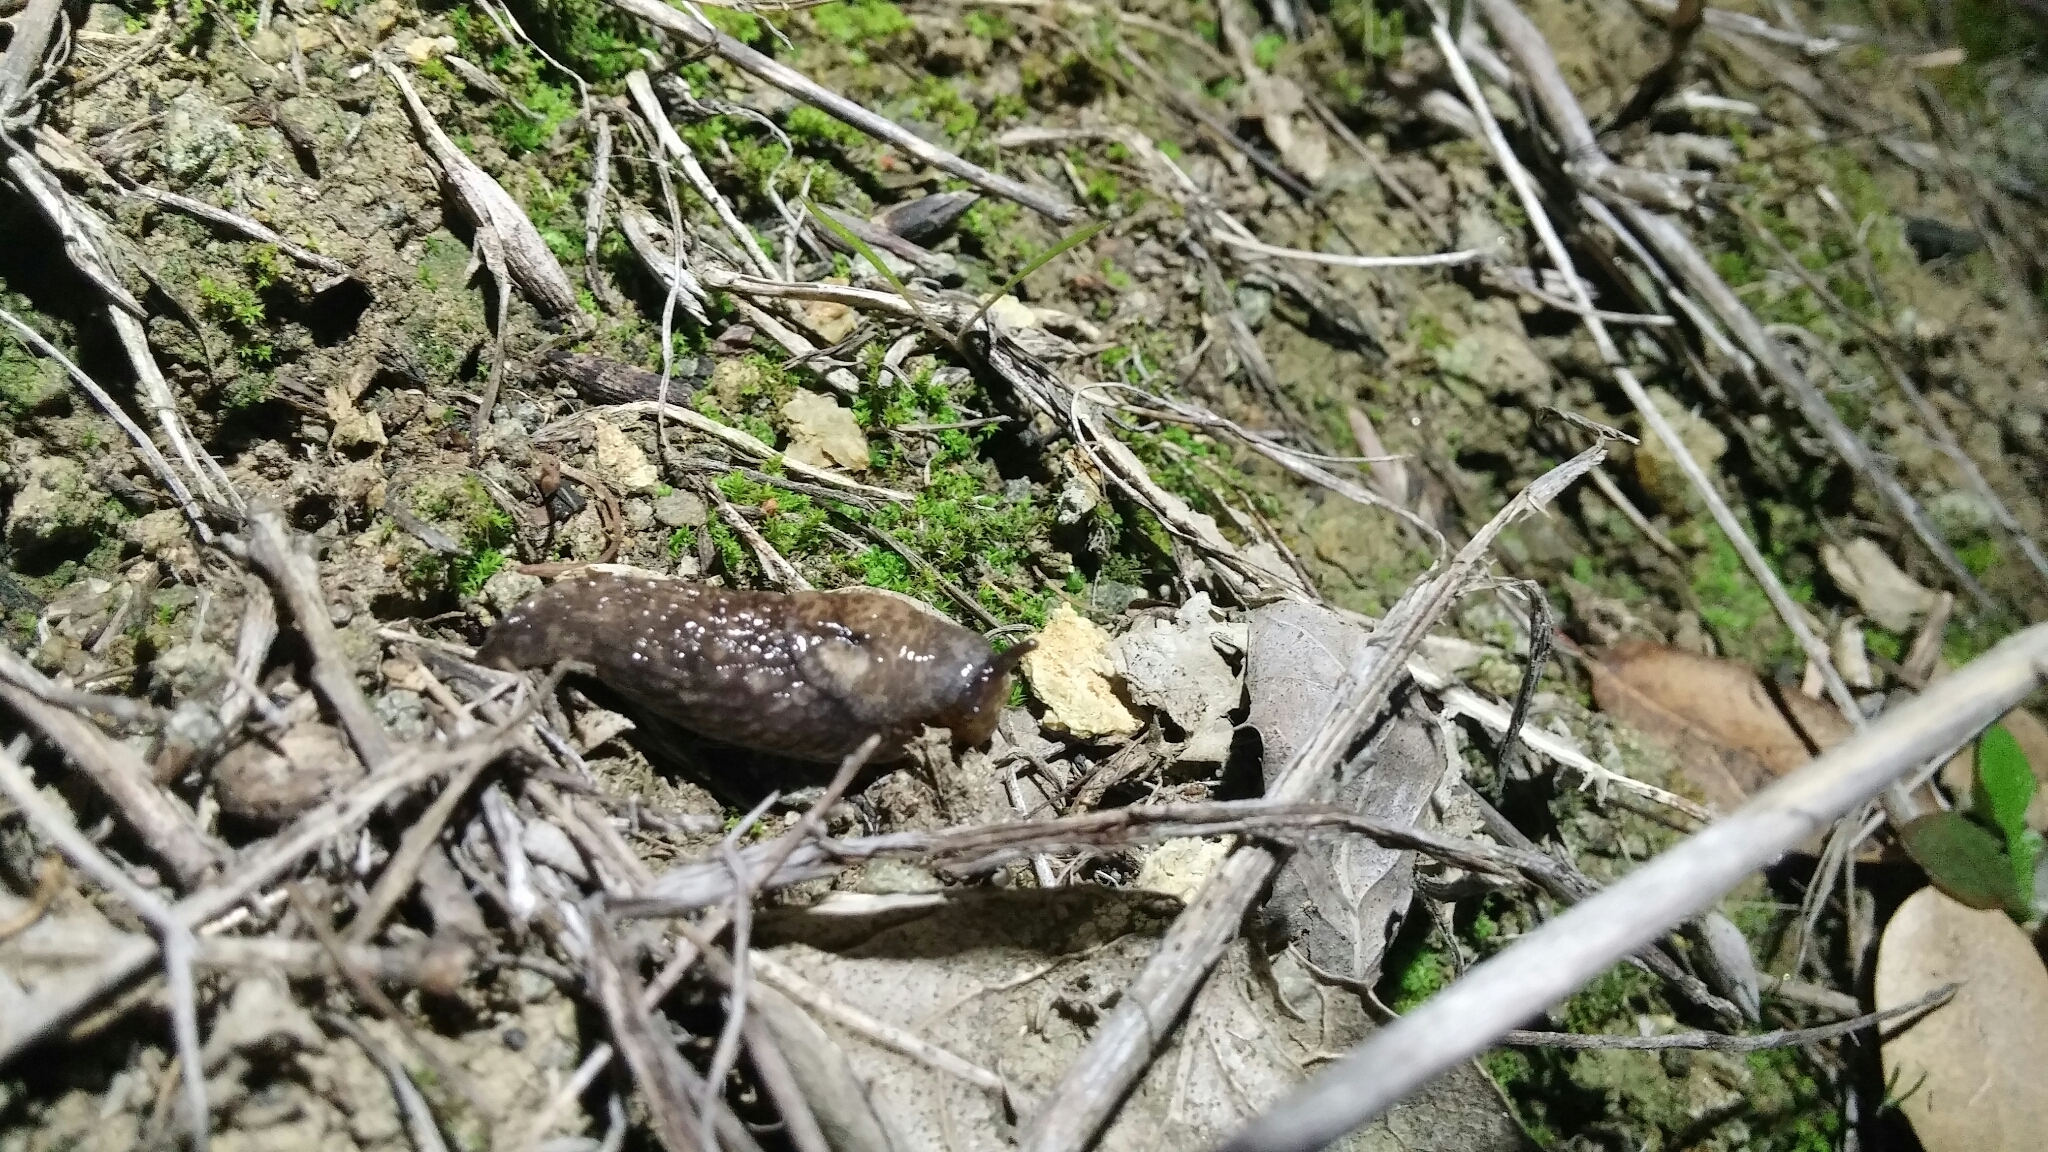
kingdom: Animalia
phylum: Mollusca
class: Gastropoda
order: Stylommatophora
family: Agriolimacidae
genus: Deroceras
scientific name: Deroceras reticulatum
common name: Gray field slug
